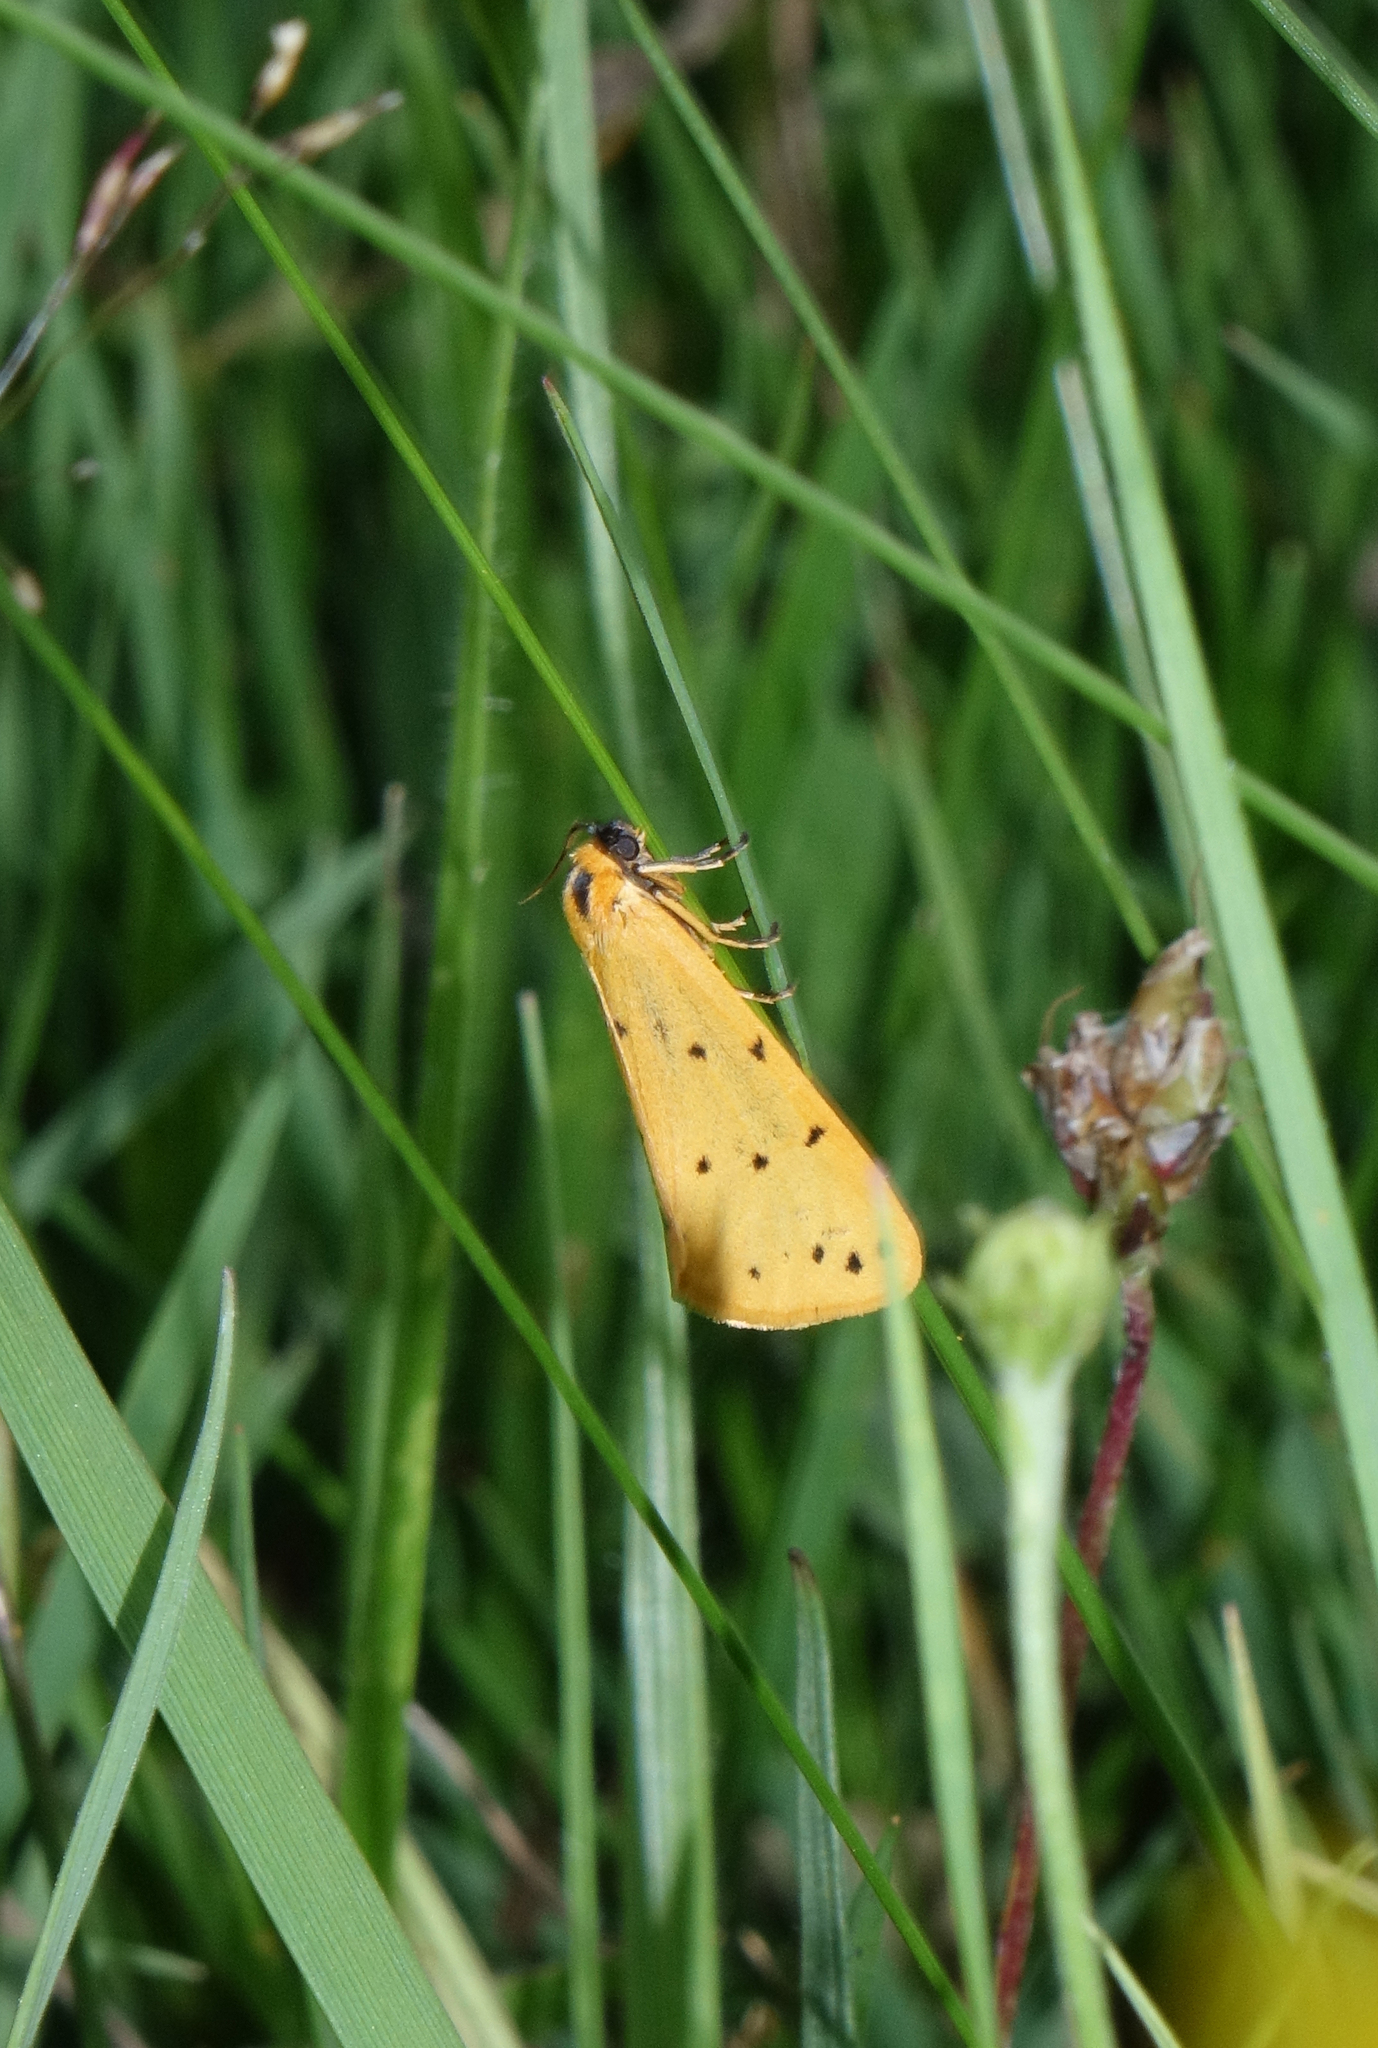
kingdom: Animalia
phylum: Arthropoda
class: Insecta
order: Lepidoptera
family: Erebidae
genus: Setina
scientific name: Setina irrorella
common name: Dew moth
